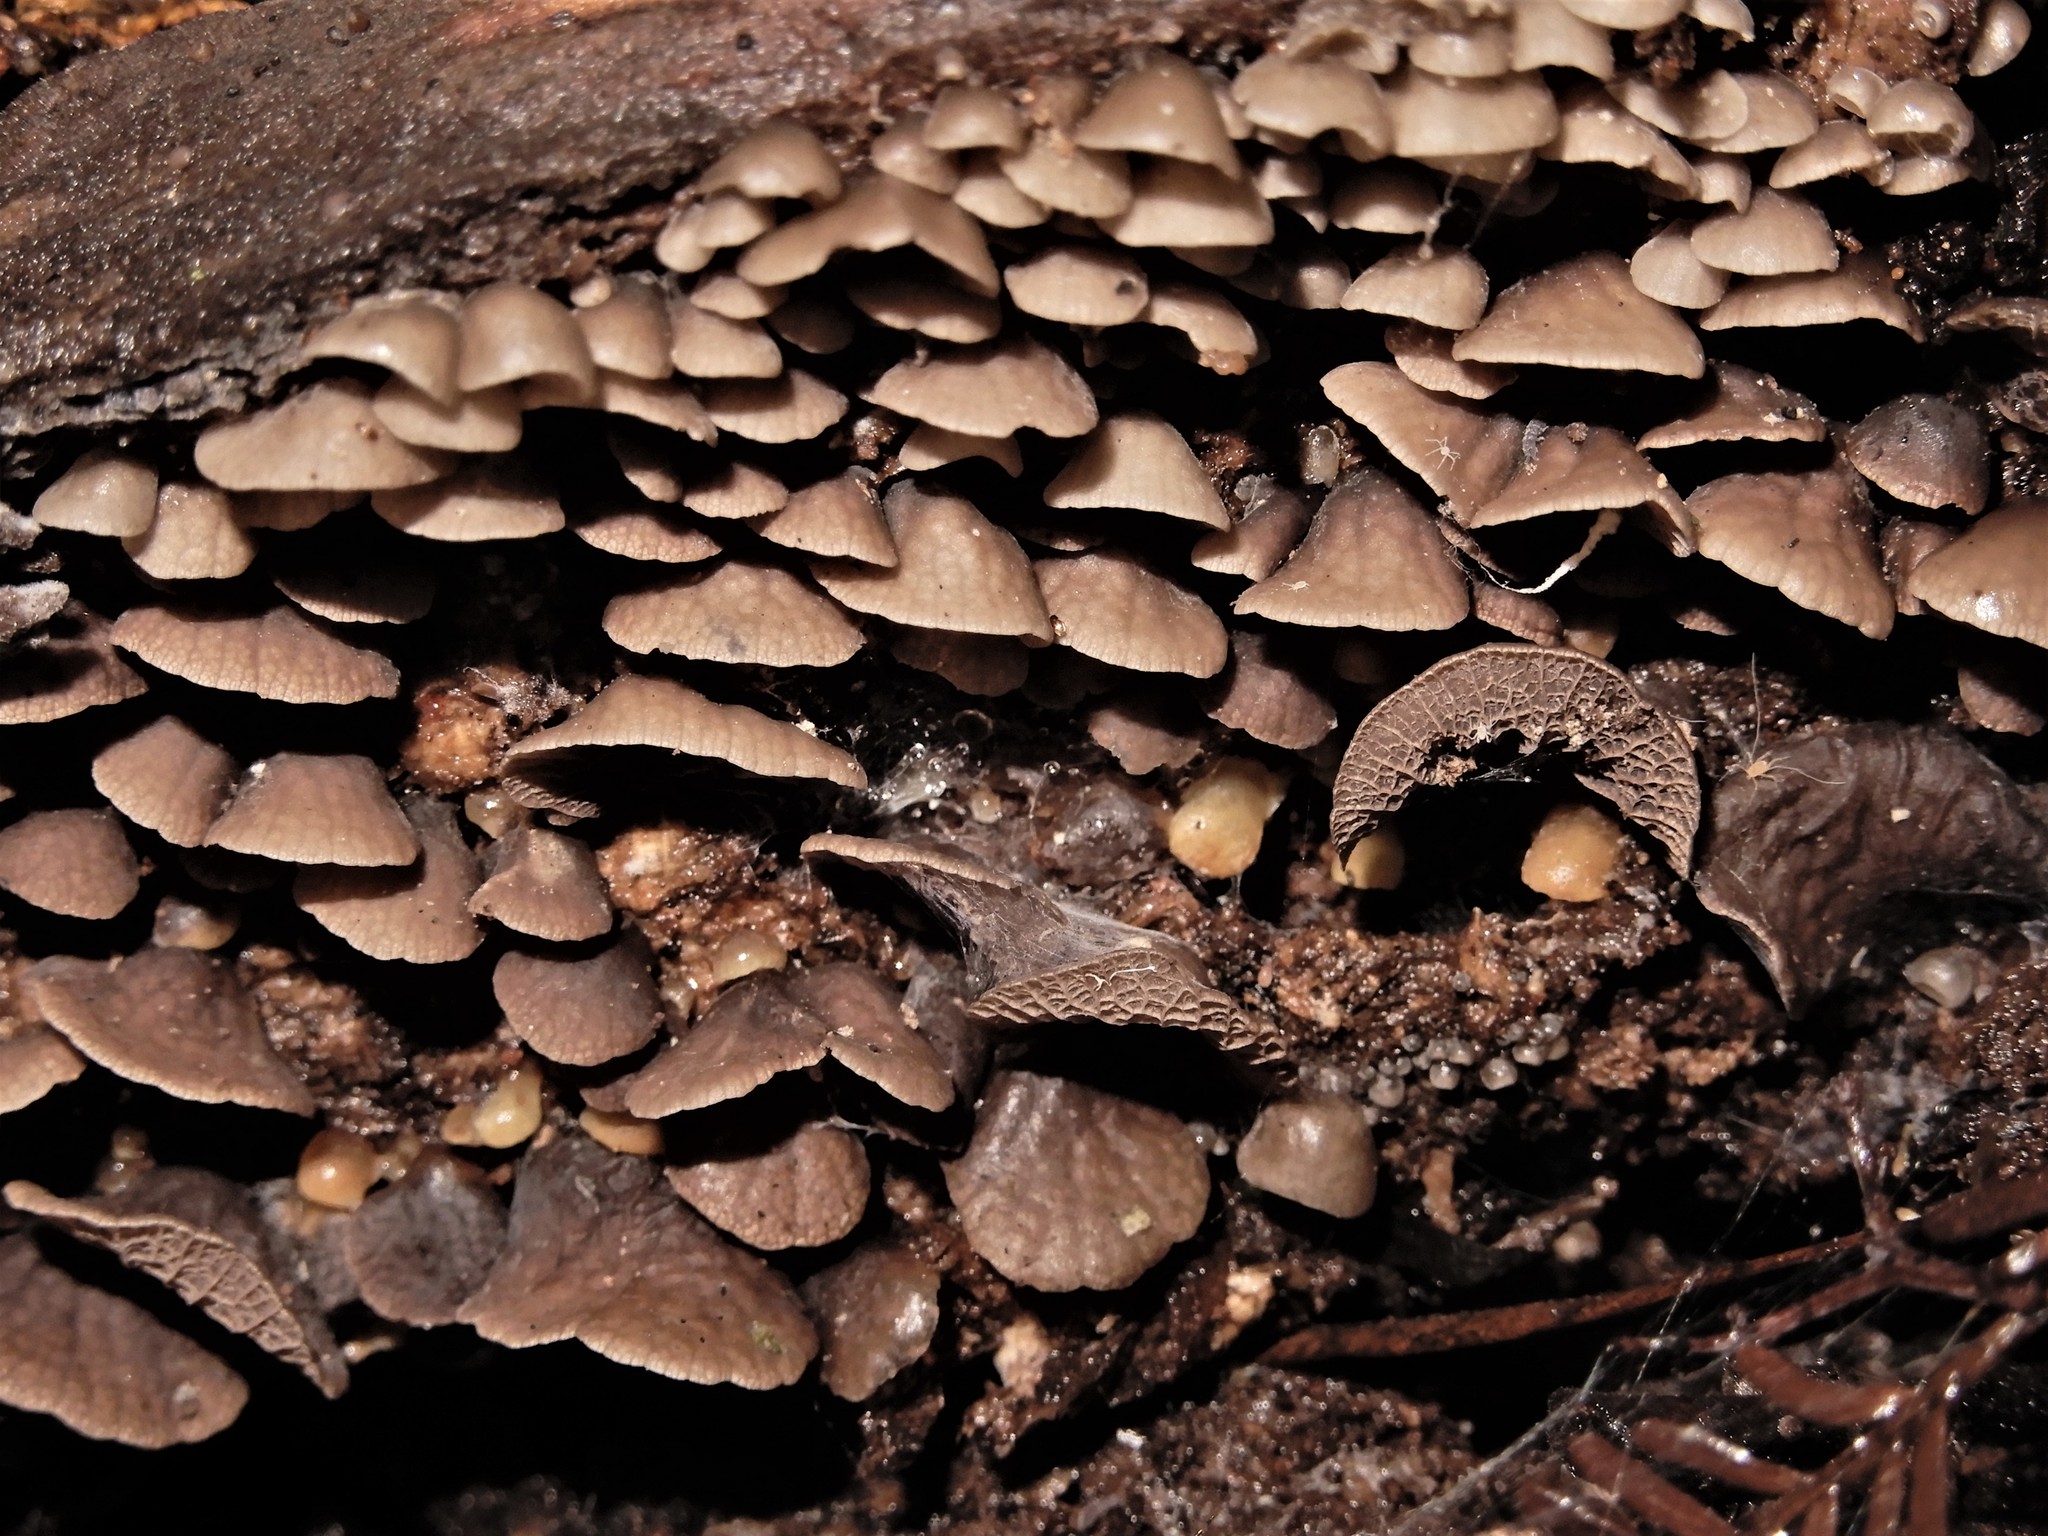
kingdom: Fungi
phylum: Basidiomycota
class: Agaricomycetes
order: Agaricales
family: Pleurotaceae
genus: Resupinatus
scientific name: Resupinatus merulioides
